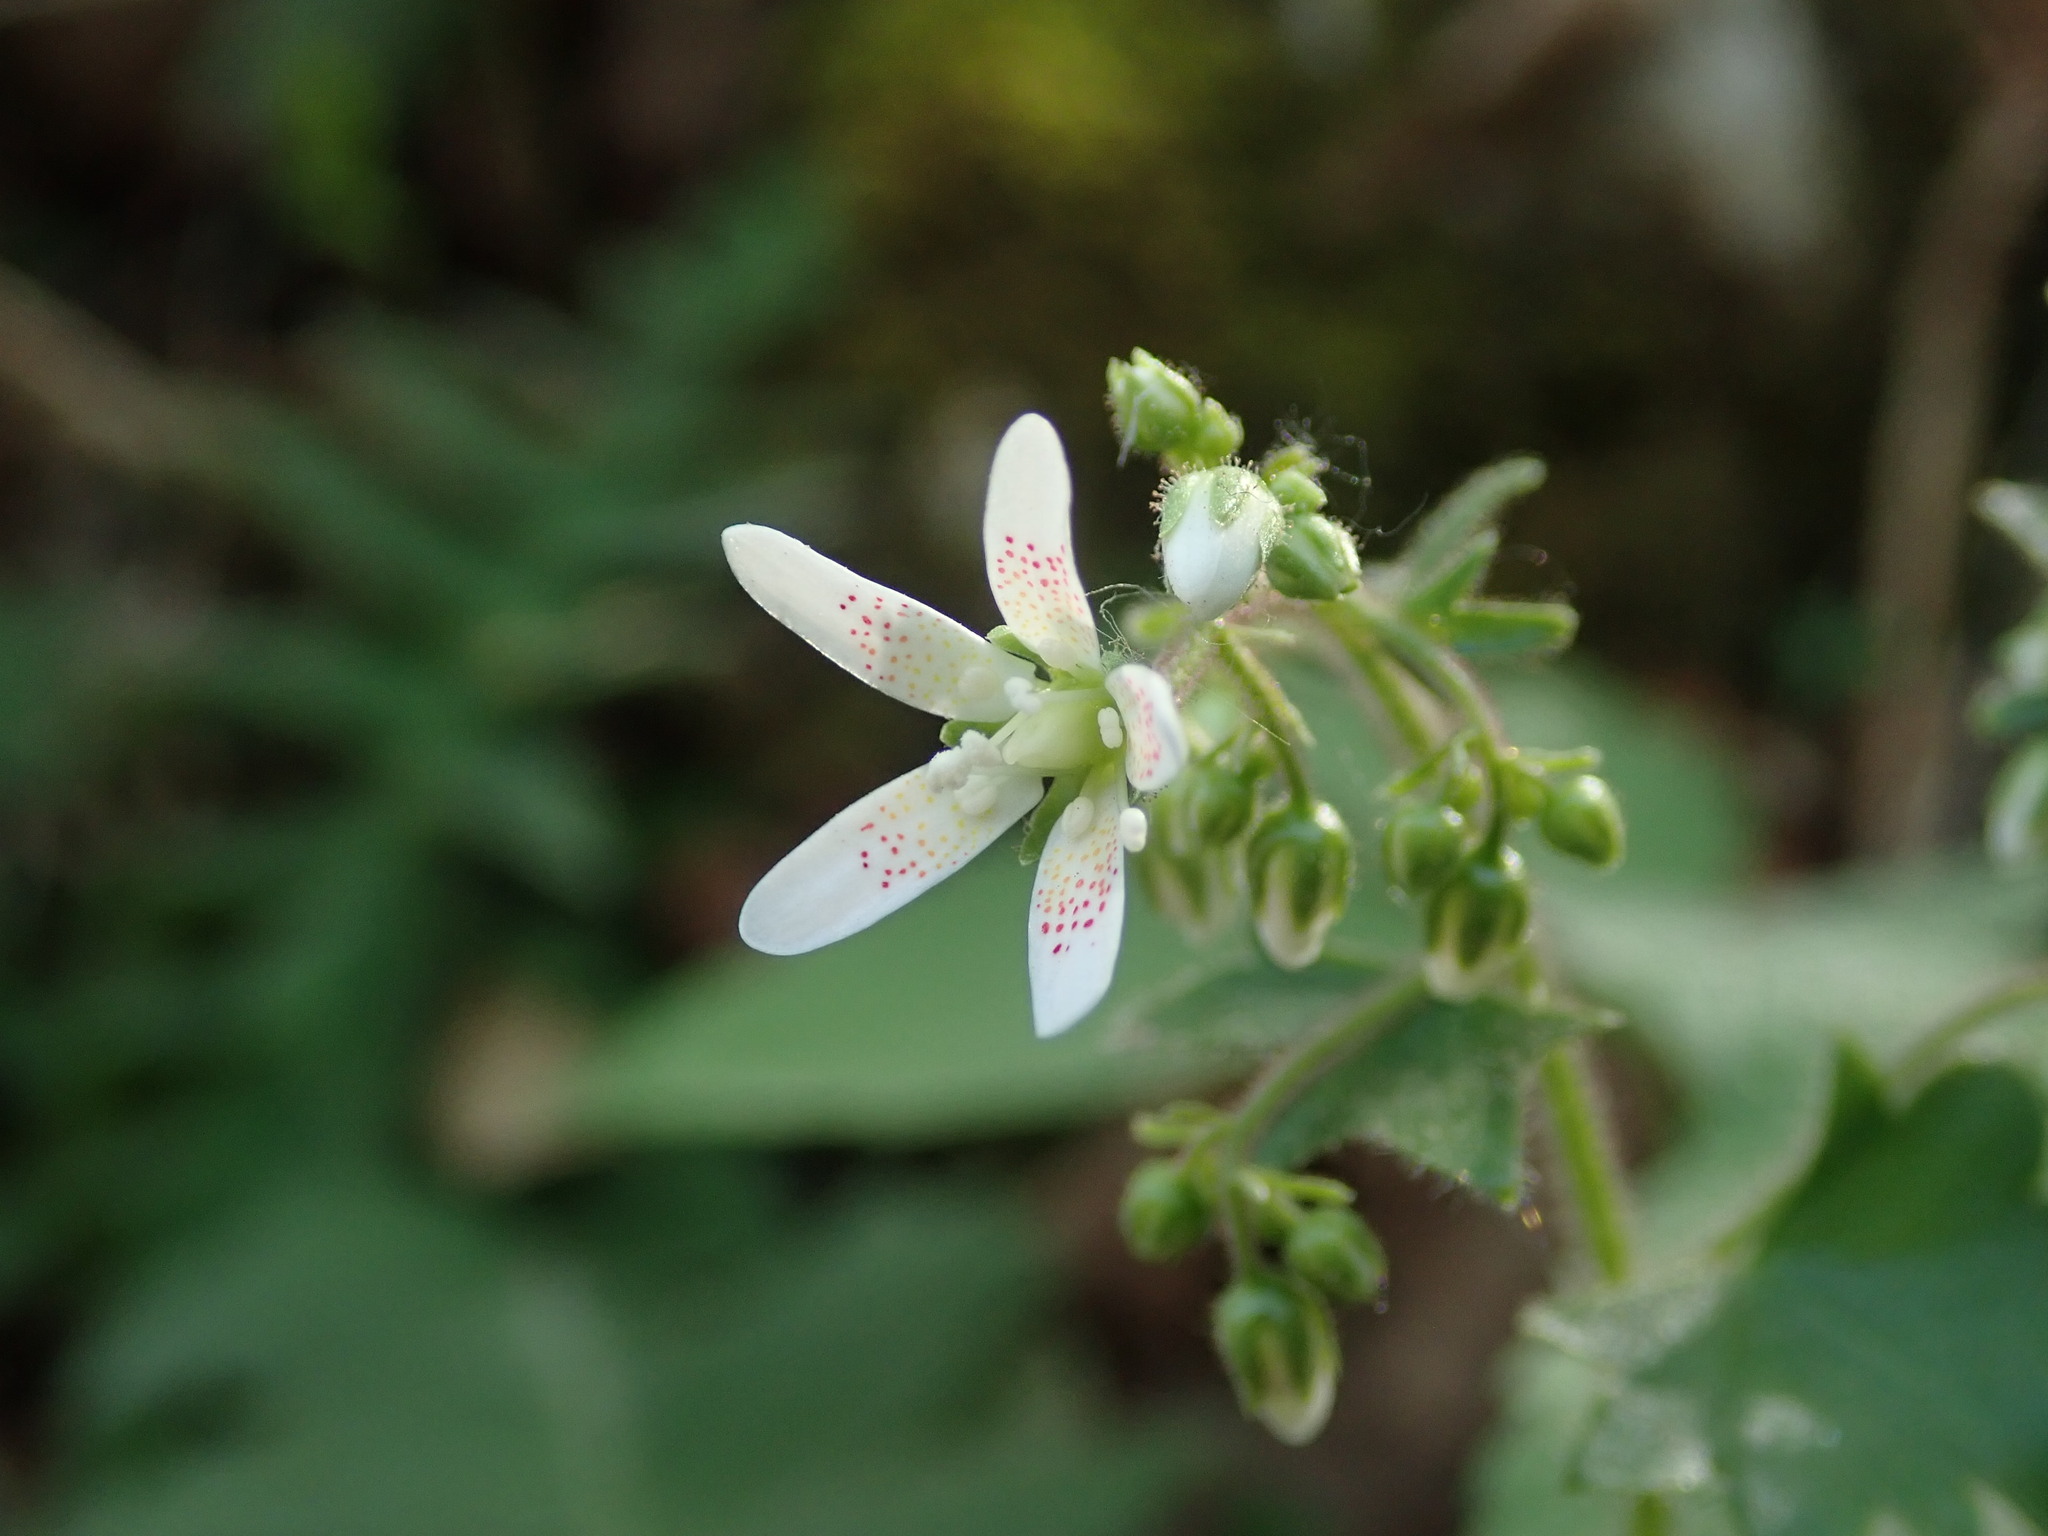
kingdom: Plantae
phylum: Tracheophyta
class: Magnoliopsida
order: Saxifragales
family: Saxifragaceae
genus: Saxifraga
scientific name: Saxifraga rotundifolia
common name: Round-leaved saxifrage
